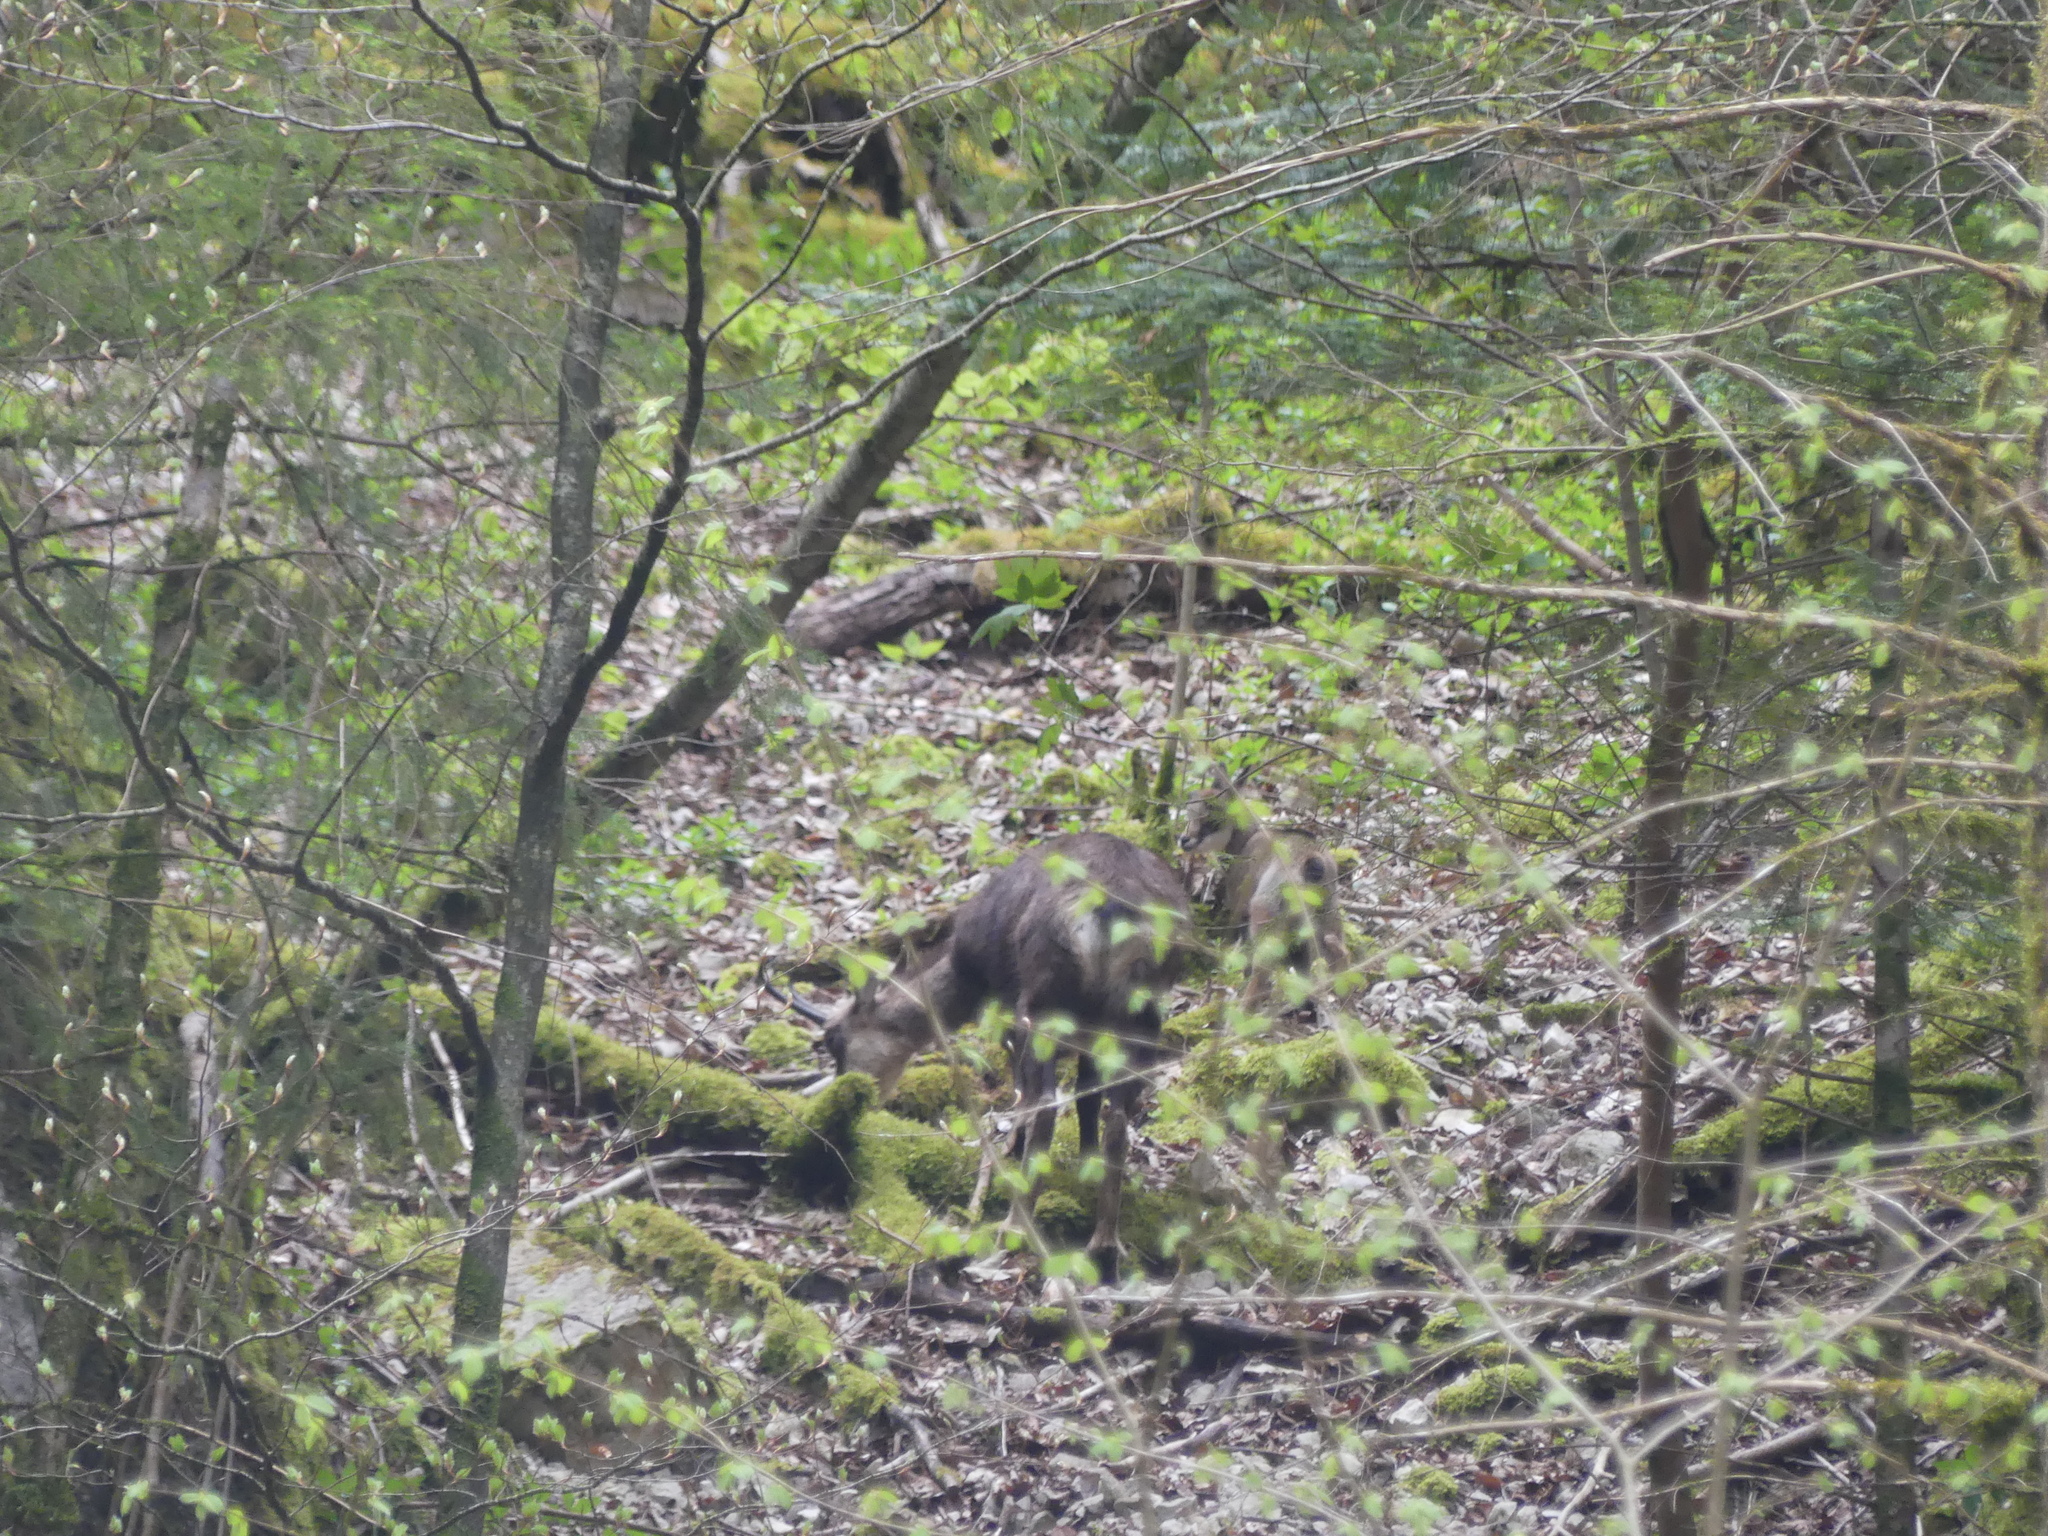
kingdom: Animalia
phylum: Chordata
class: Mammalia
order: Artiodactyla
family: Bovidae
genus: Rupicapra
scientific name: Rupicapra rupicapra
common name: Chamois
